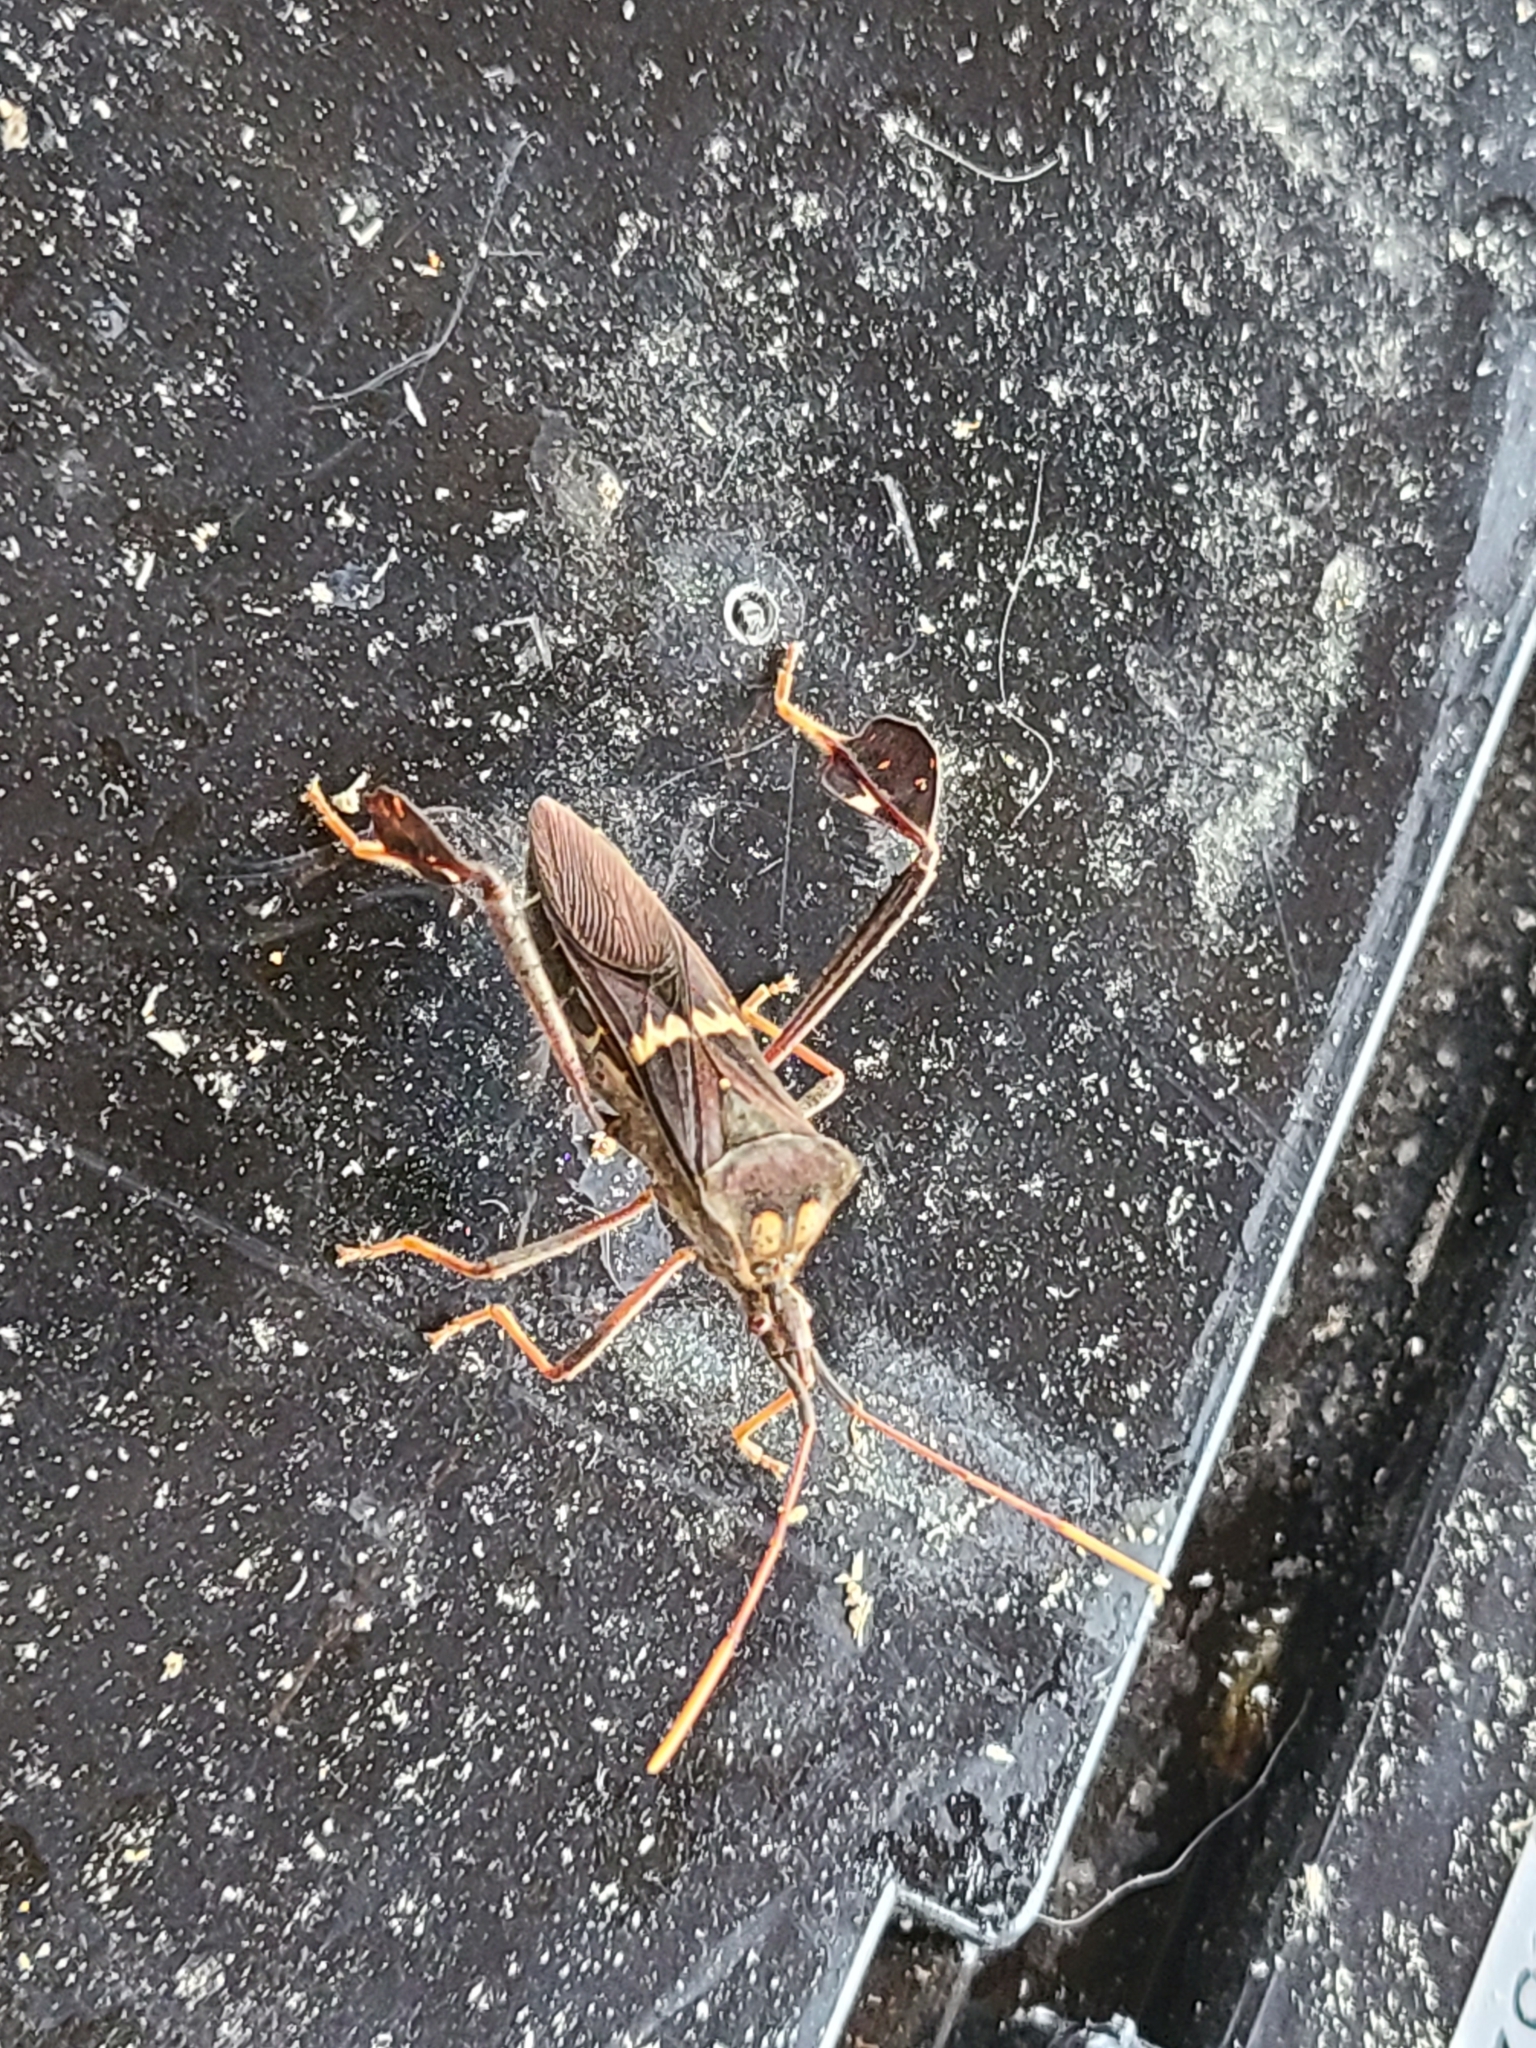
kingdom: Animalia
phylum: Arthropoda
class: Insecta
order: Hemiptera
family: Coreidae
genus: Leptoglossus
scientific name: Leptoglossus zonatus
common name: Large-legged bug
